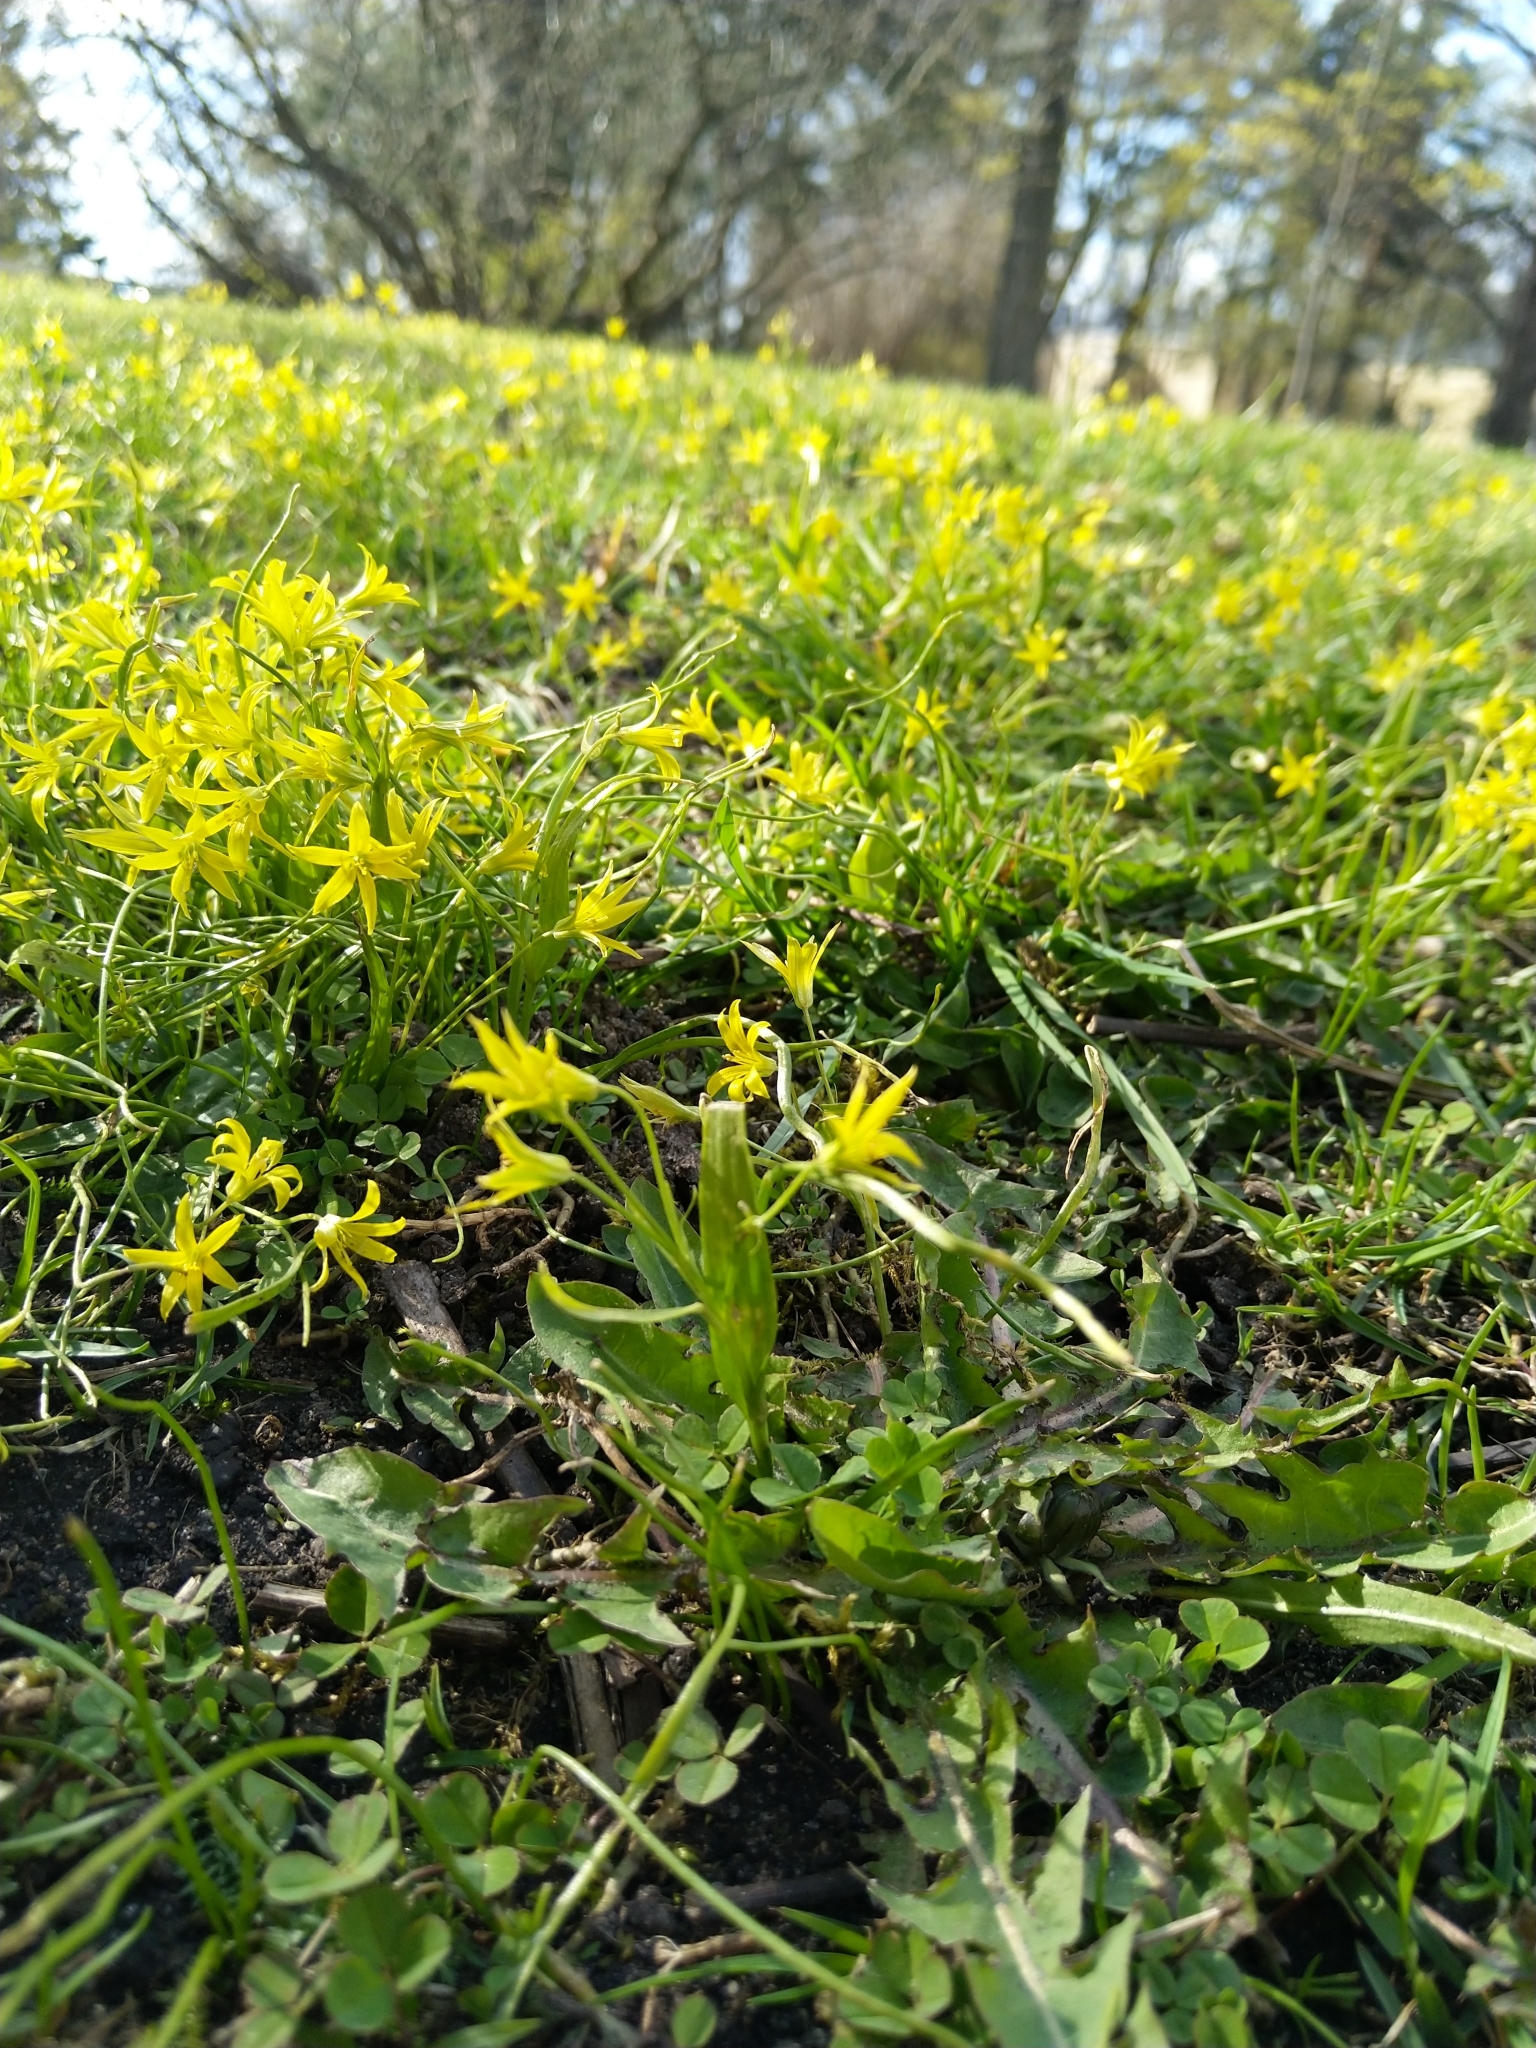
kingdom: Plantae
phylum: Tracheophyta
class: Liliopsida
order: Liliales
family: Liliaceae
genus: Gagea
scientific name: Gagea minima
